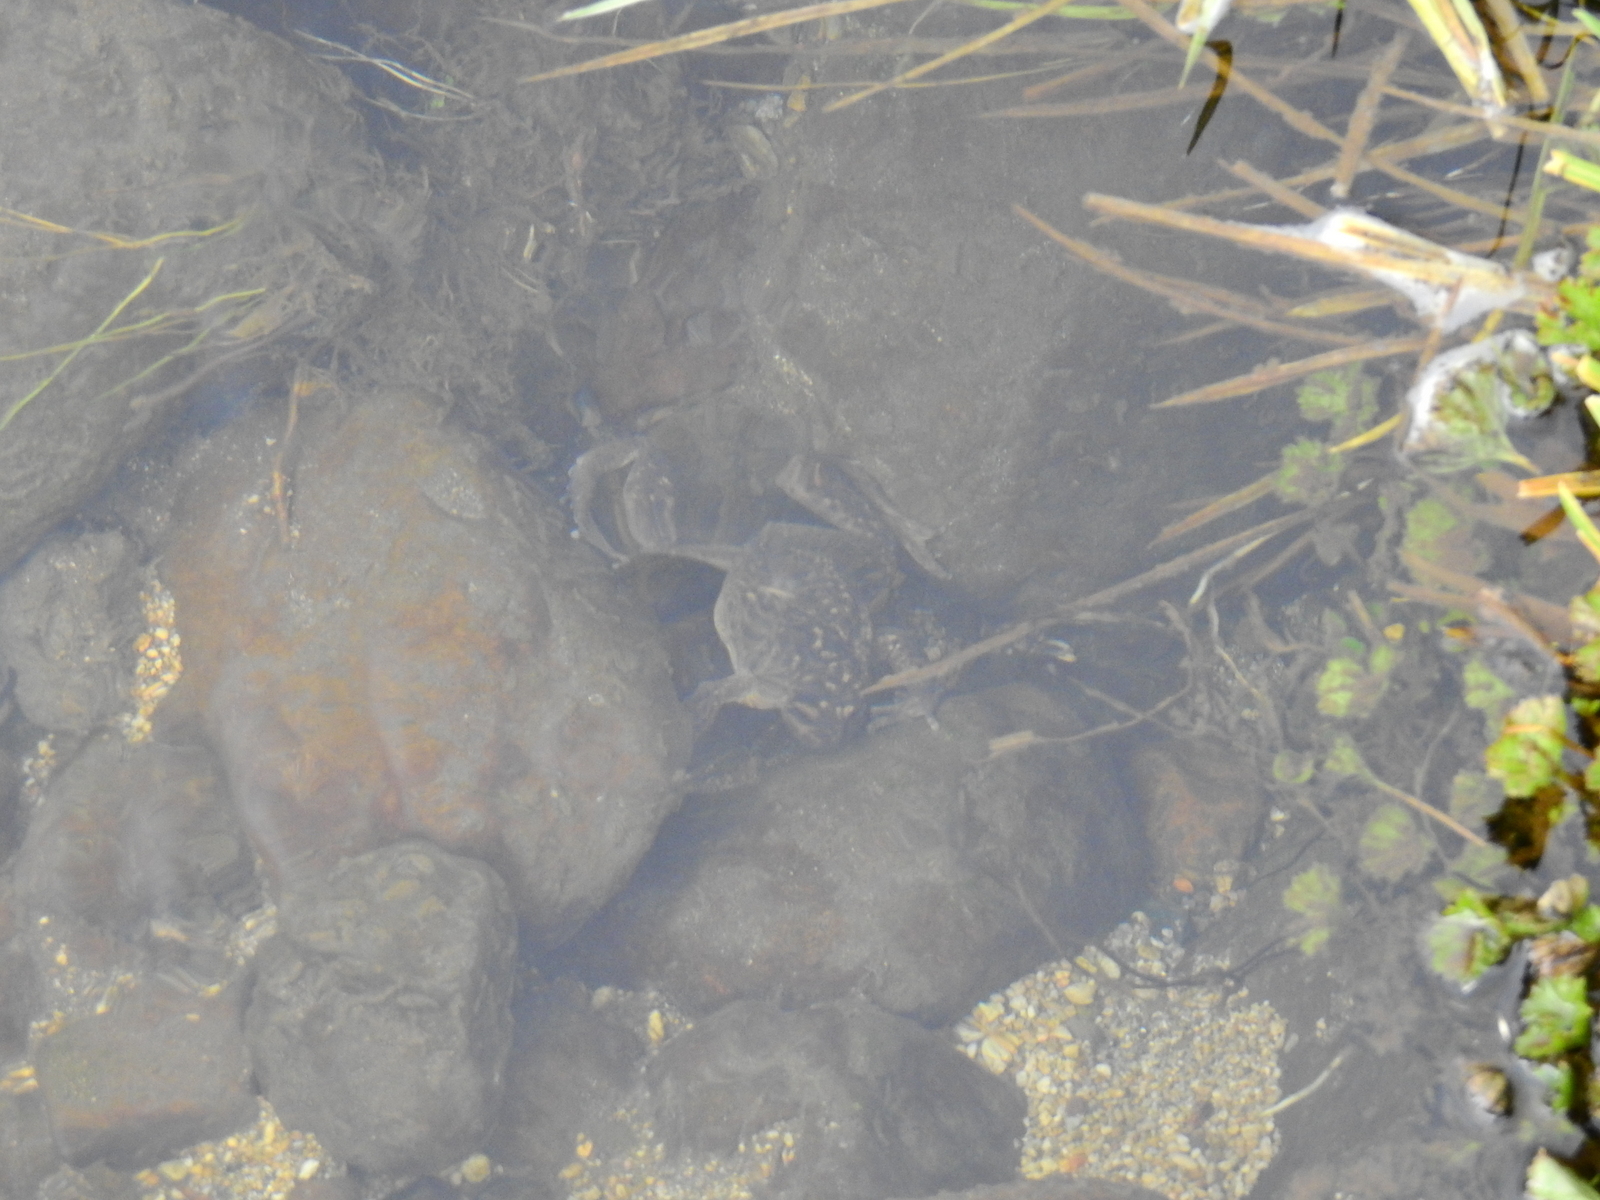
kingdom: Animalia
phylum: Chordata
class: Amphibia
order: Anura
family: Alsodidae
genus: Alsodes
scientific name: Alsodes pehuenche
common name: Pehuenche spiny-chest frog
